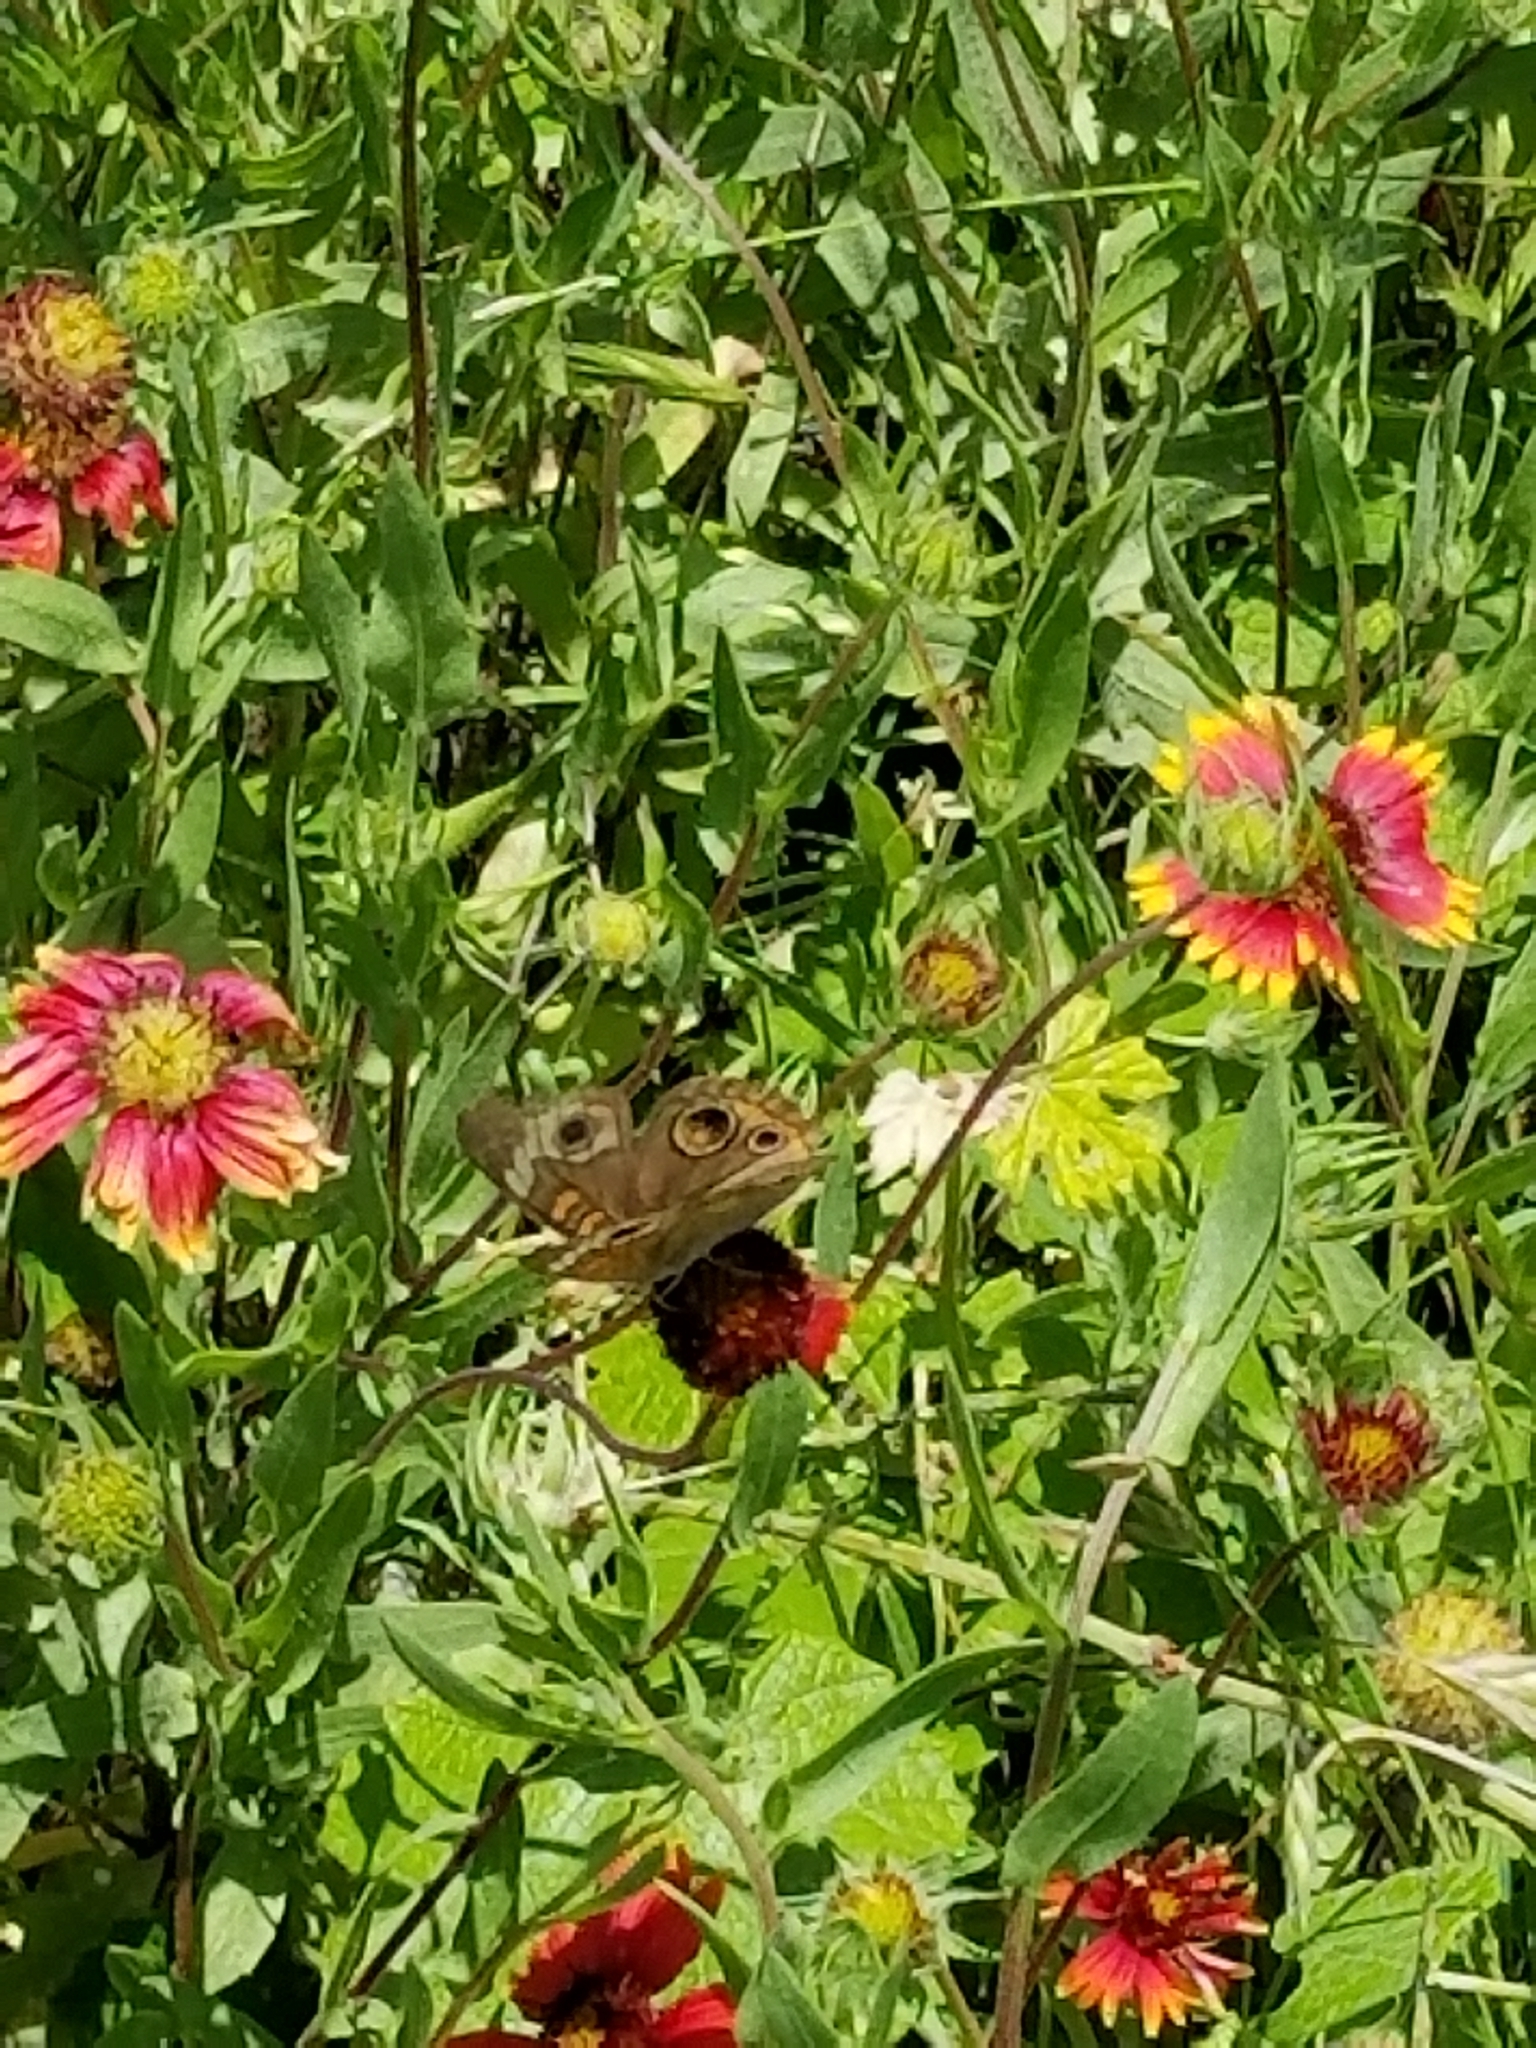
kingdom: Animalia
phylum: Arthropoda
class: Insecta
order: Lepidoptera
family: Nymphalidae
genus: Junonia
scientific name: Junonia coenia
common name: Common buckeye
